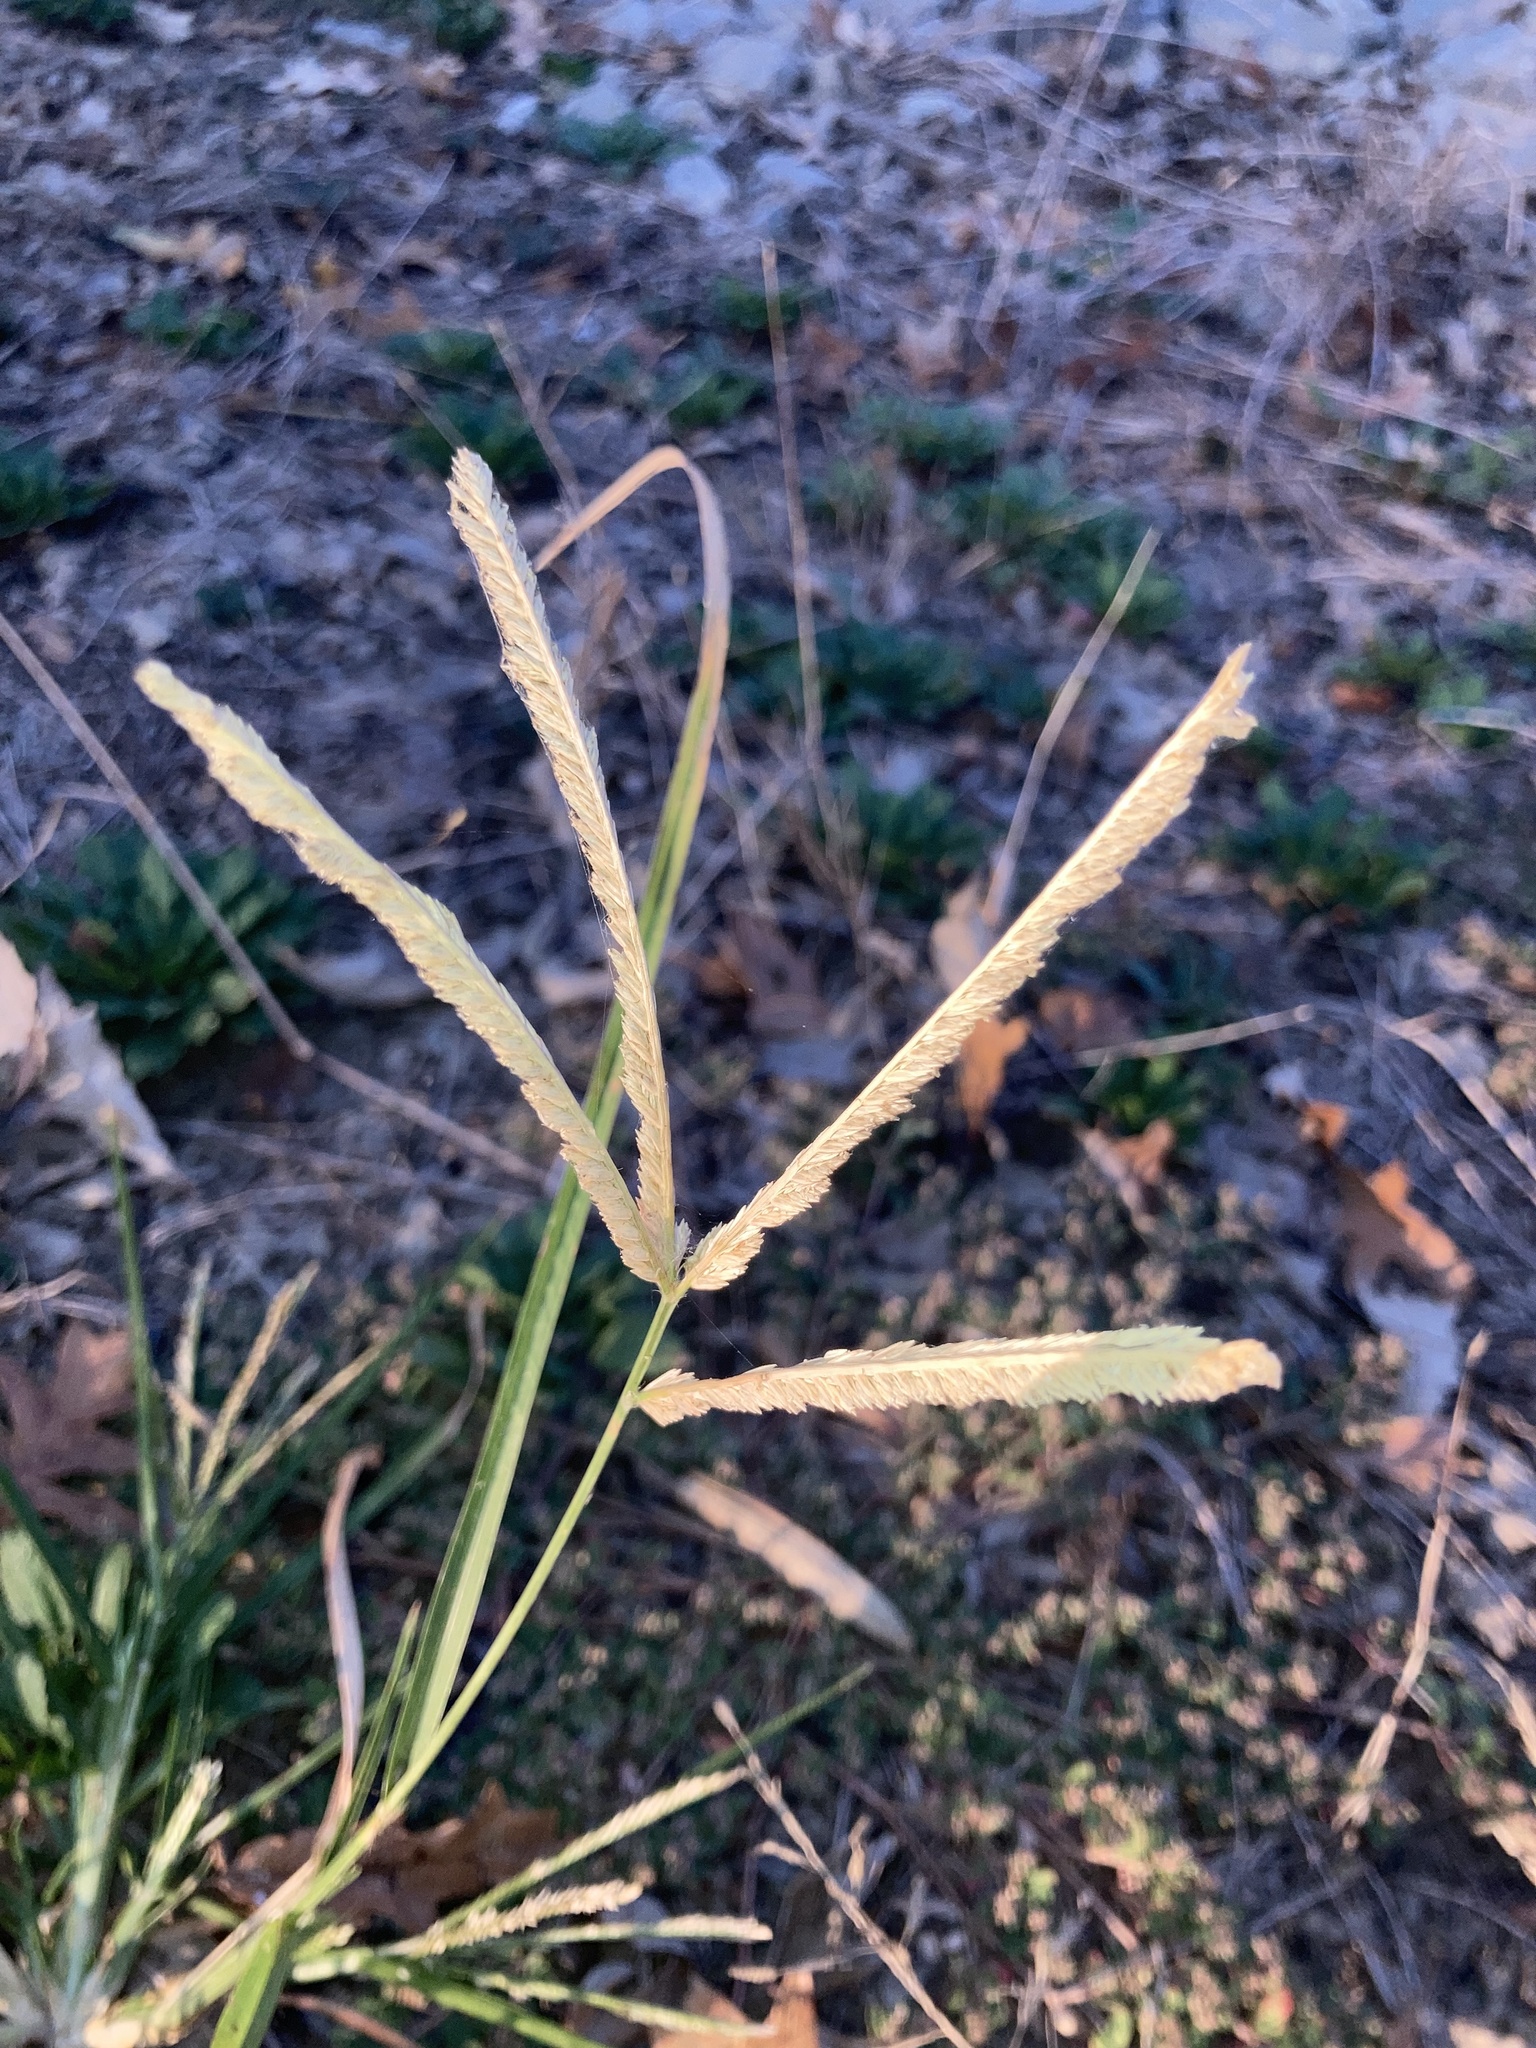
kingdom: Plantae
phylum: Tracheophyta
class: Liliopsida
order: Poales
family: Poaceae
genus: Eleusine
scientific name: Eleusine indica
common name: Yard-grass
